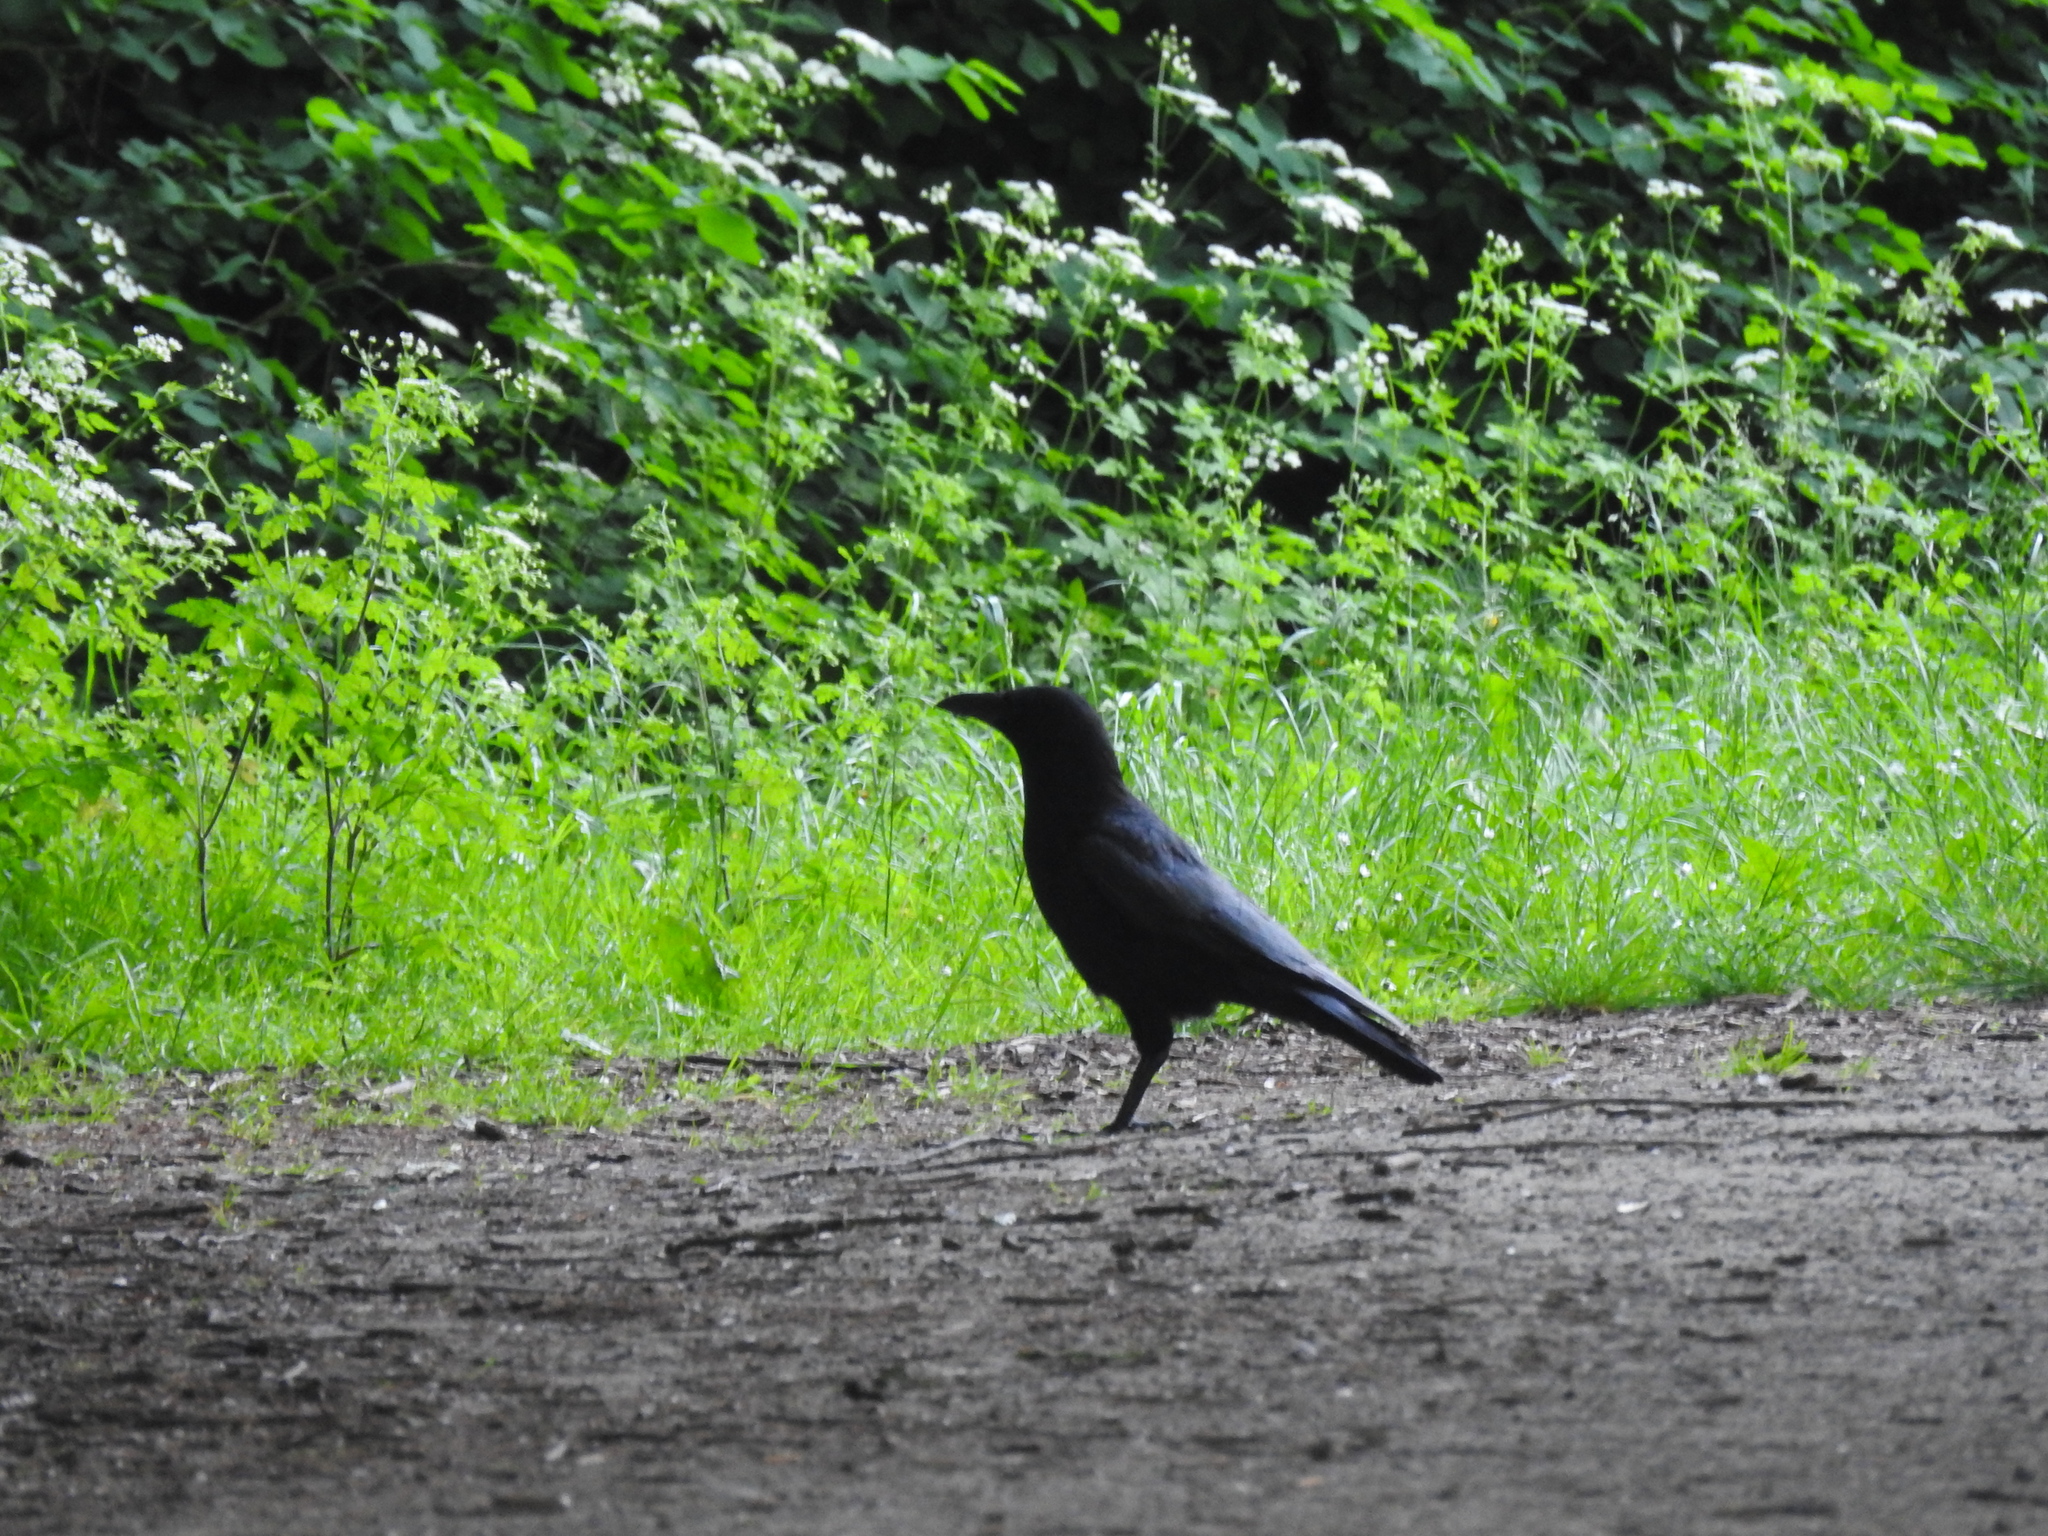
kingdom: Animalia
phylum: Chordata
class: Aves
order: Passeriformes
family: Corvidae
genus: Corvus
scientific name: Corvus corone
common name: Carrion crow
